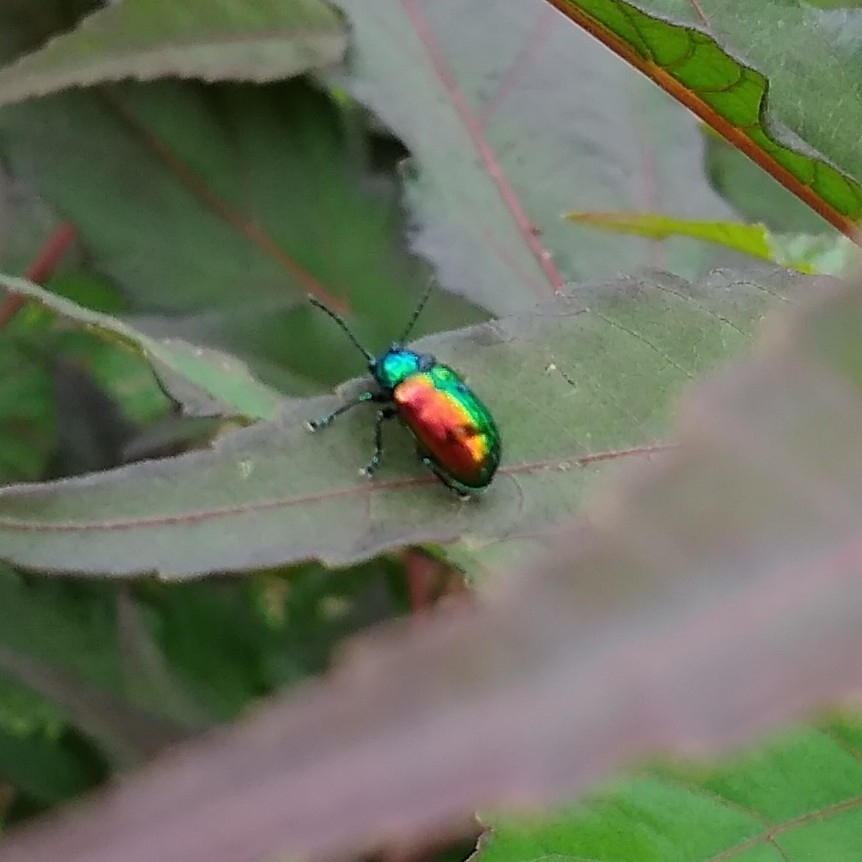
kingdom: Animalia
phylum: Arthropoda
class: Insecta
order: Coleoptera
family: Chrysomelidae
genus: Chrysochus
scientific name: Chrysochus auratus
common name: Dogbane leaf beetle
